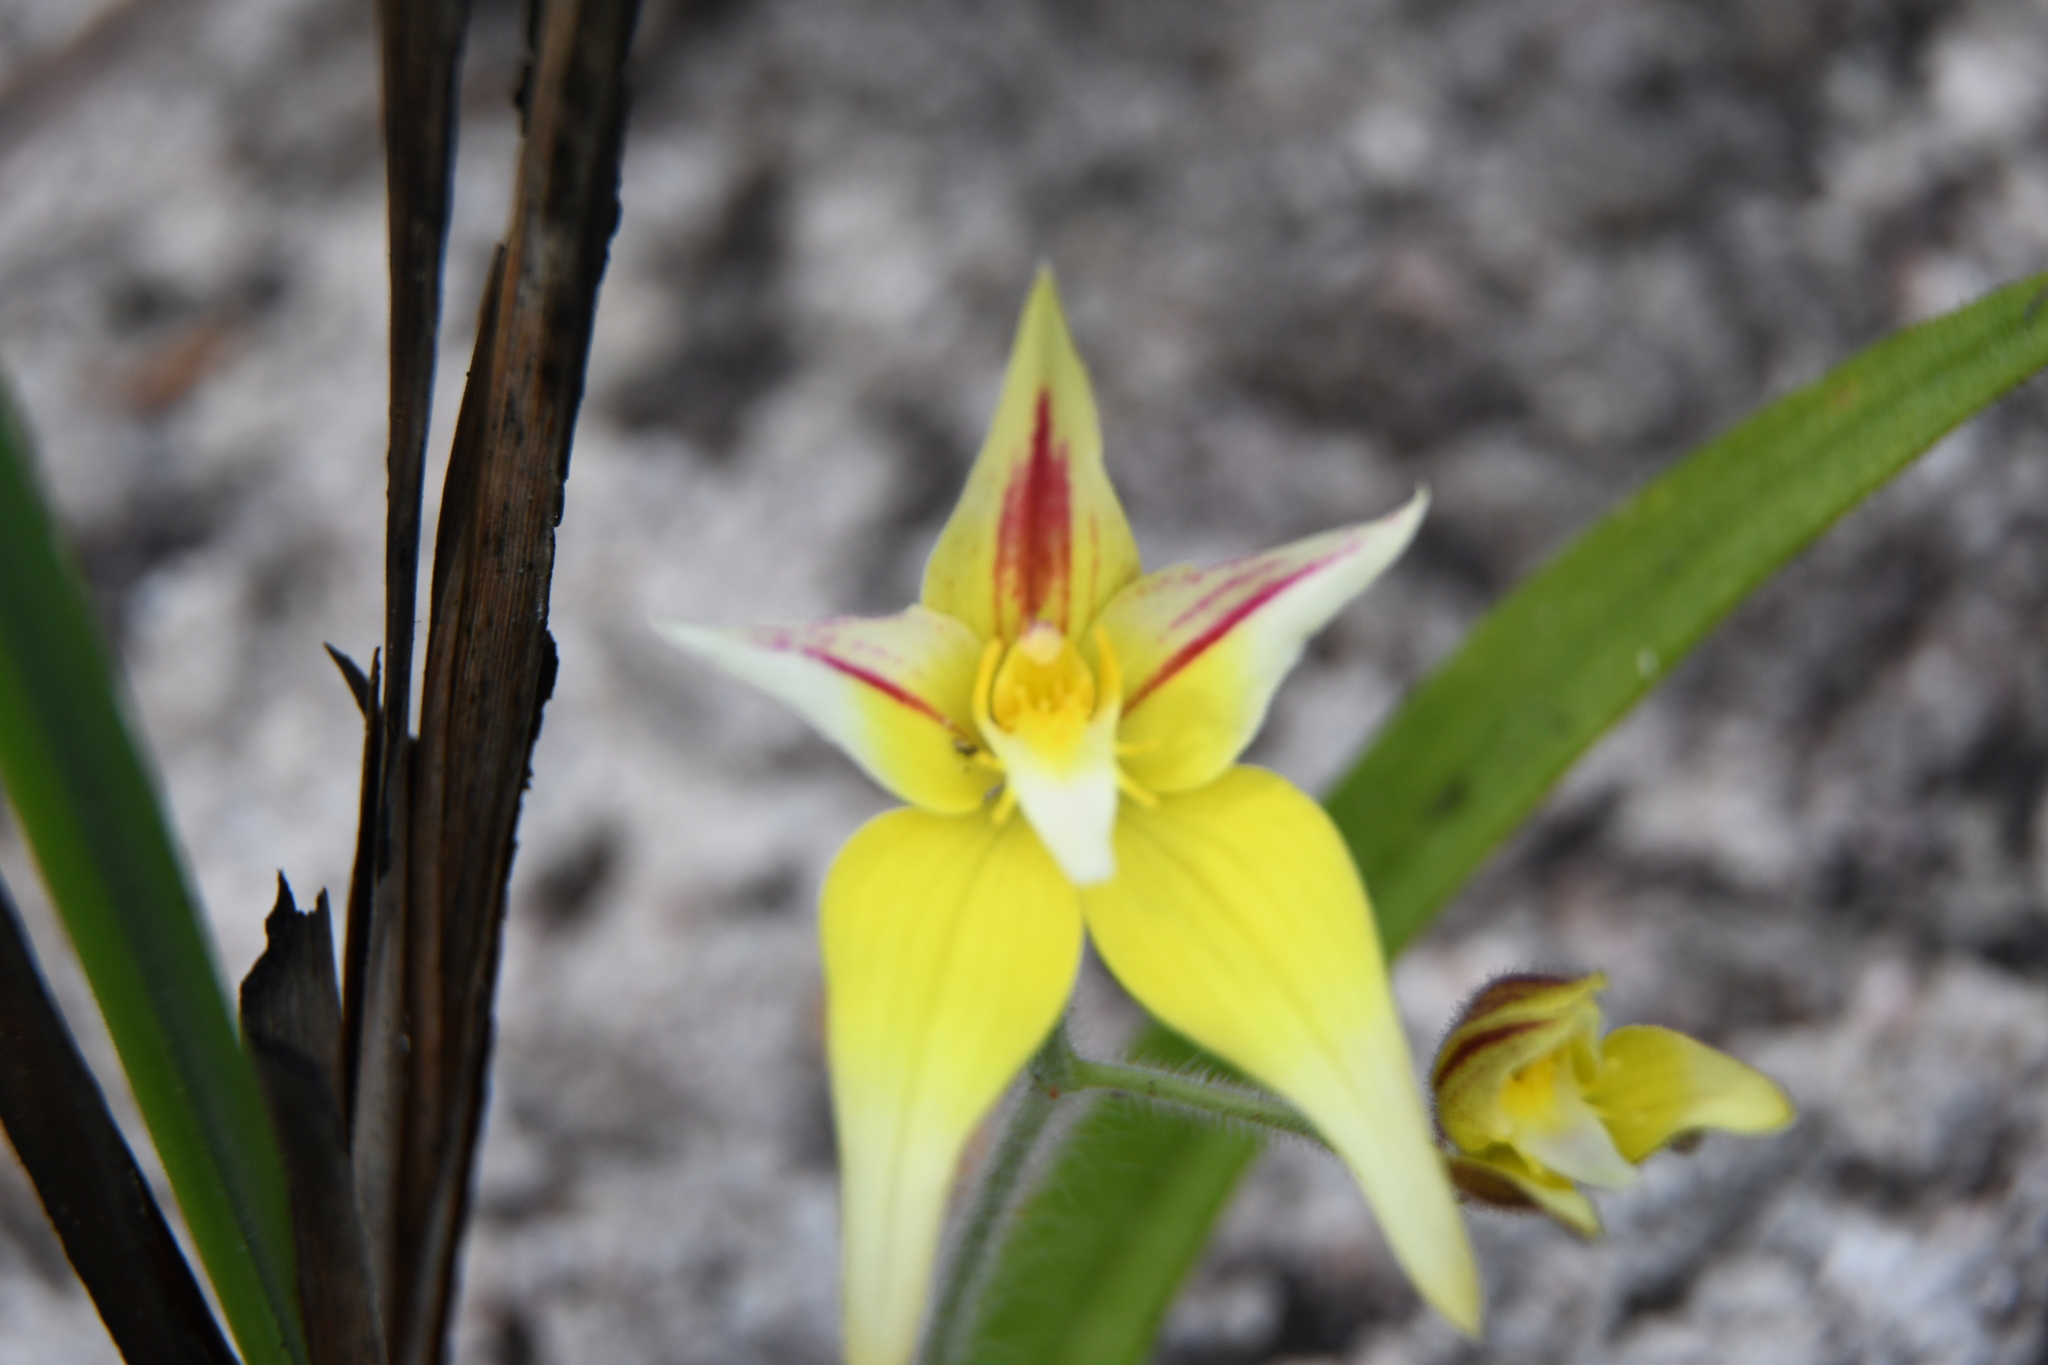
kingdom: Plantae
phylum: Tracheophyta
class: Liliopsida
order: Asparagales
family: Orchidaceae
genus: Caladenia
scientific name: Caladenia flava
